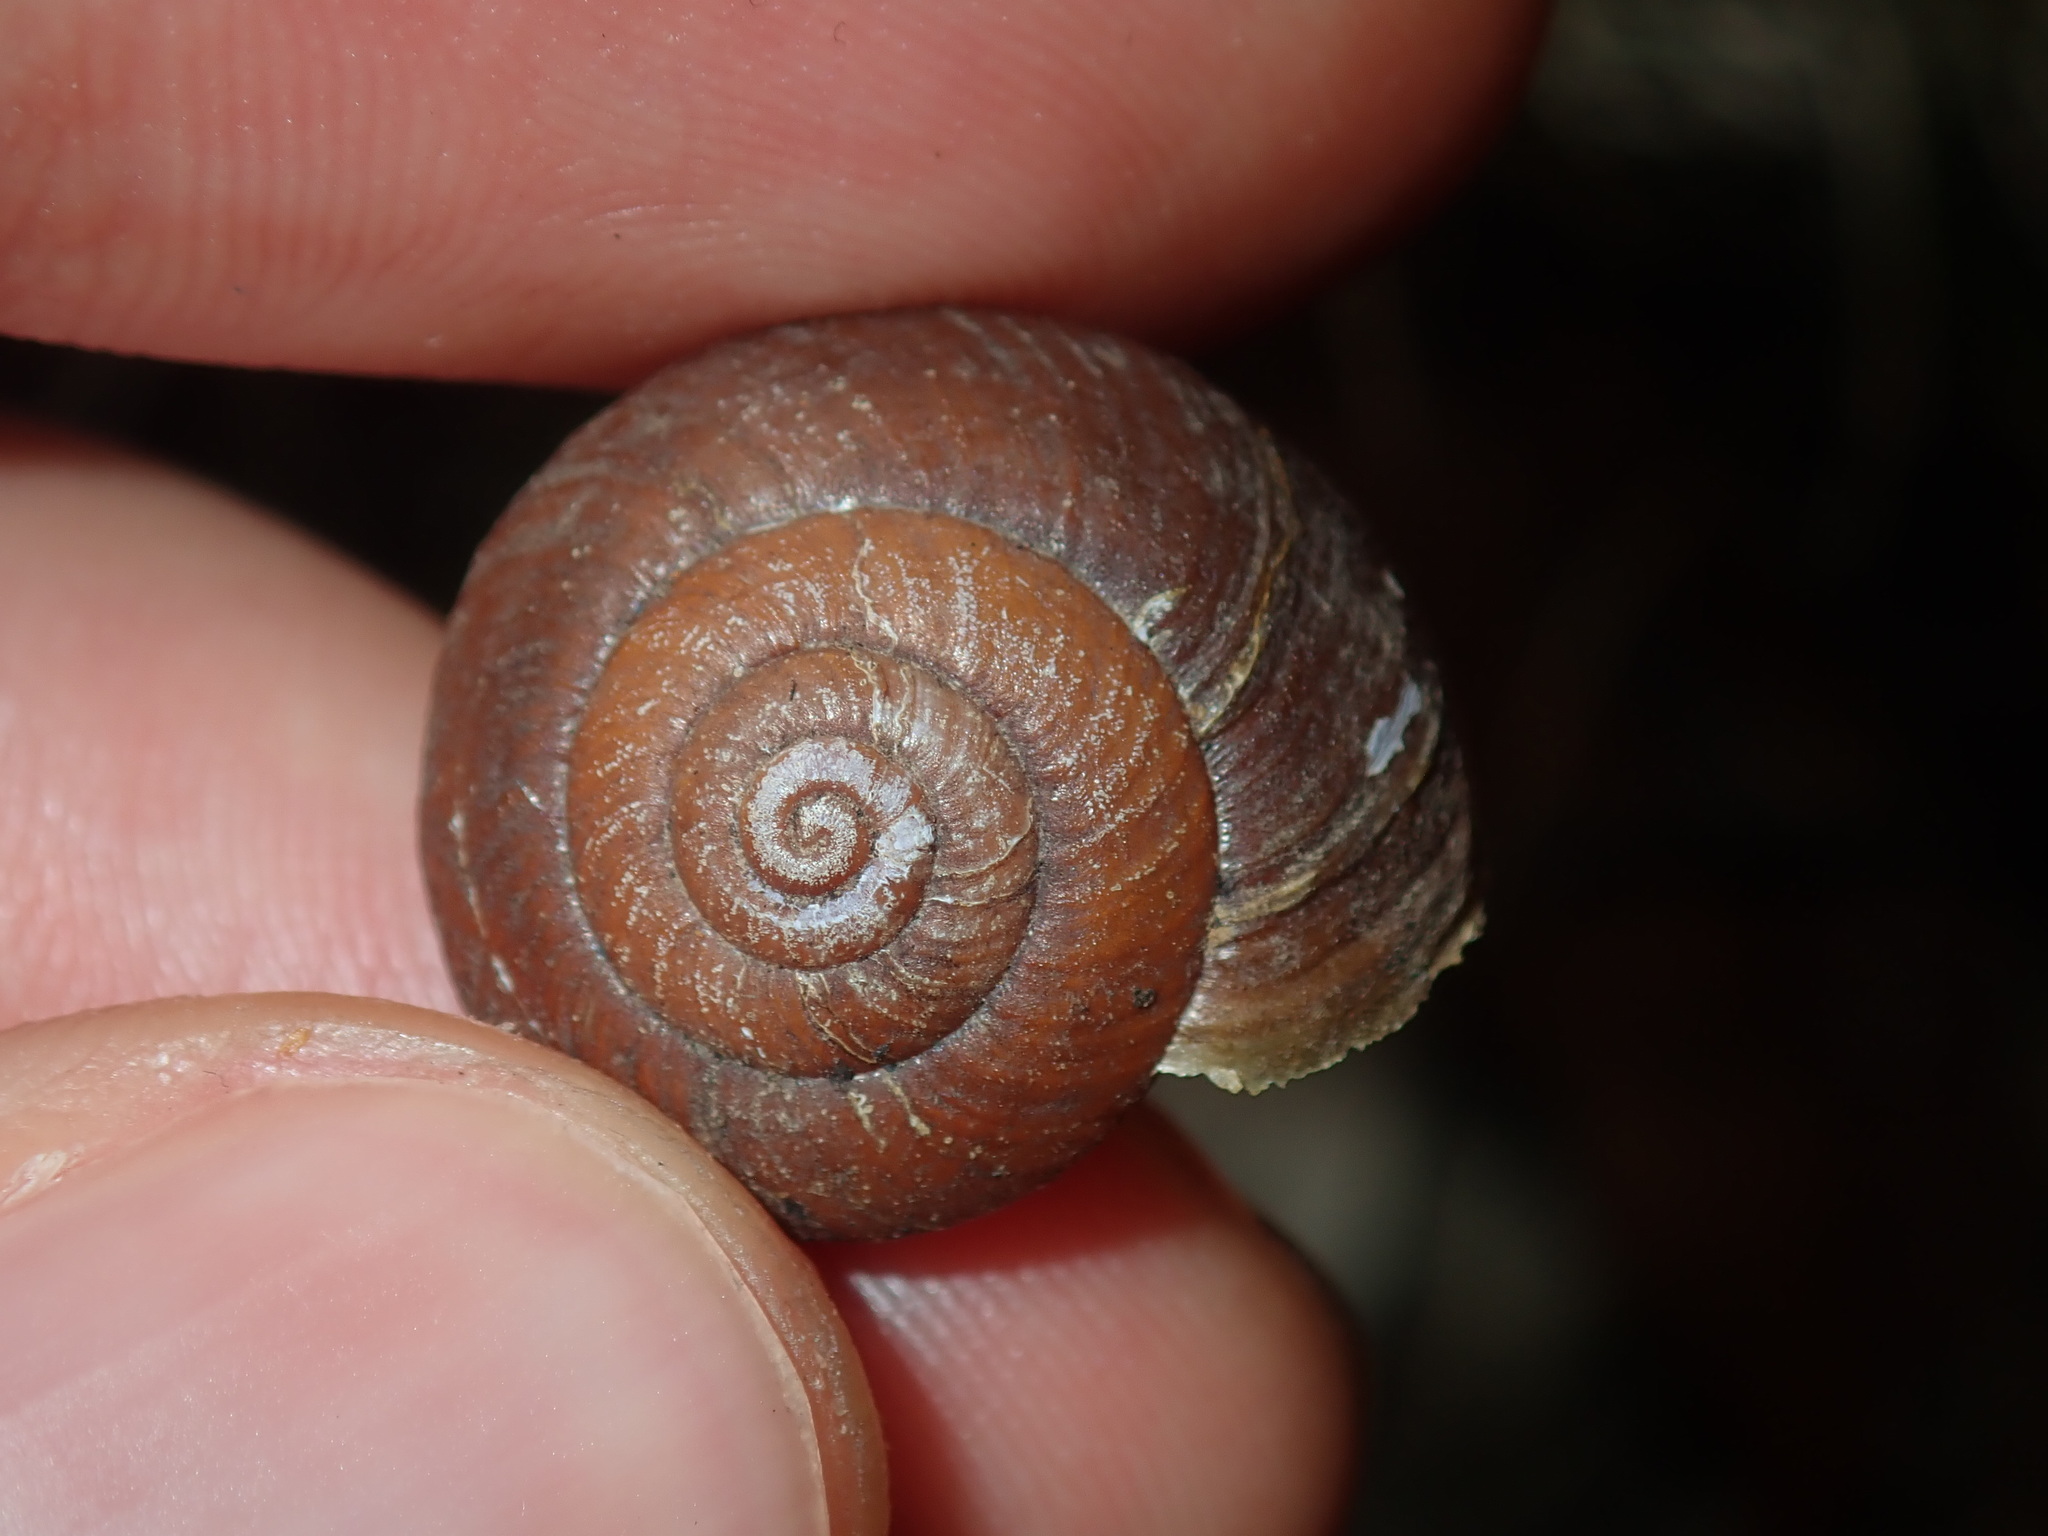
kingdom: Animalia
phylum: Mollusca
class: Gastropoda
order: Stylommatophora
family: Camaenidae
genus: Sauroconcha
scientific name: Sauroconcha sheai
